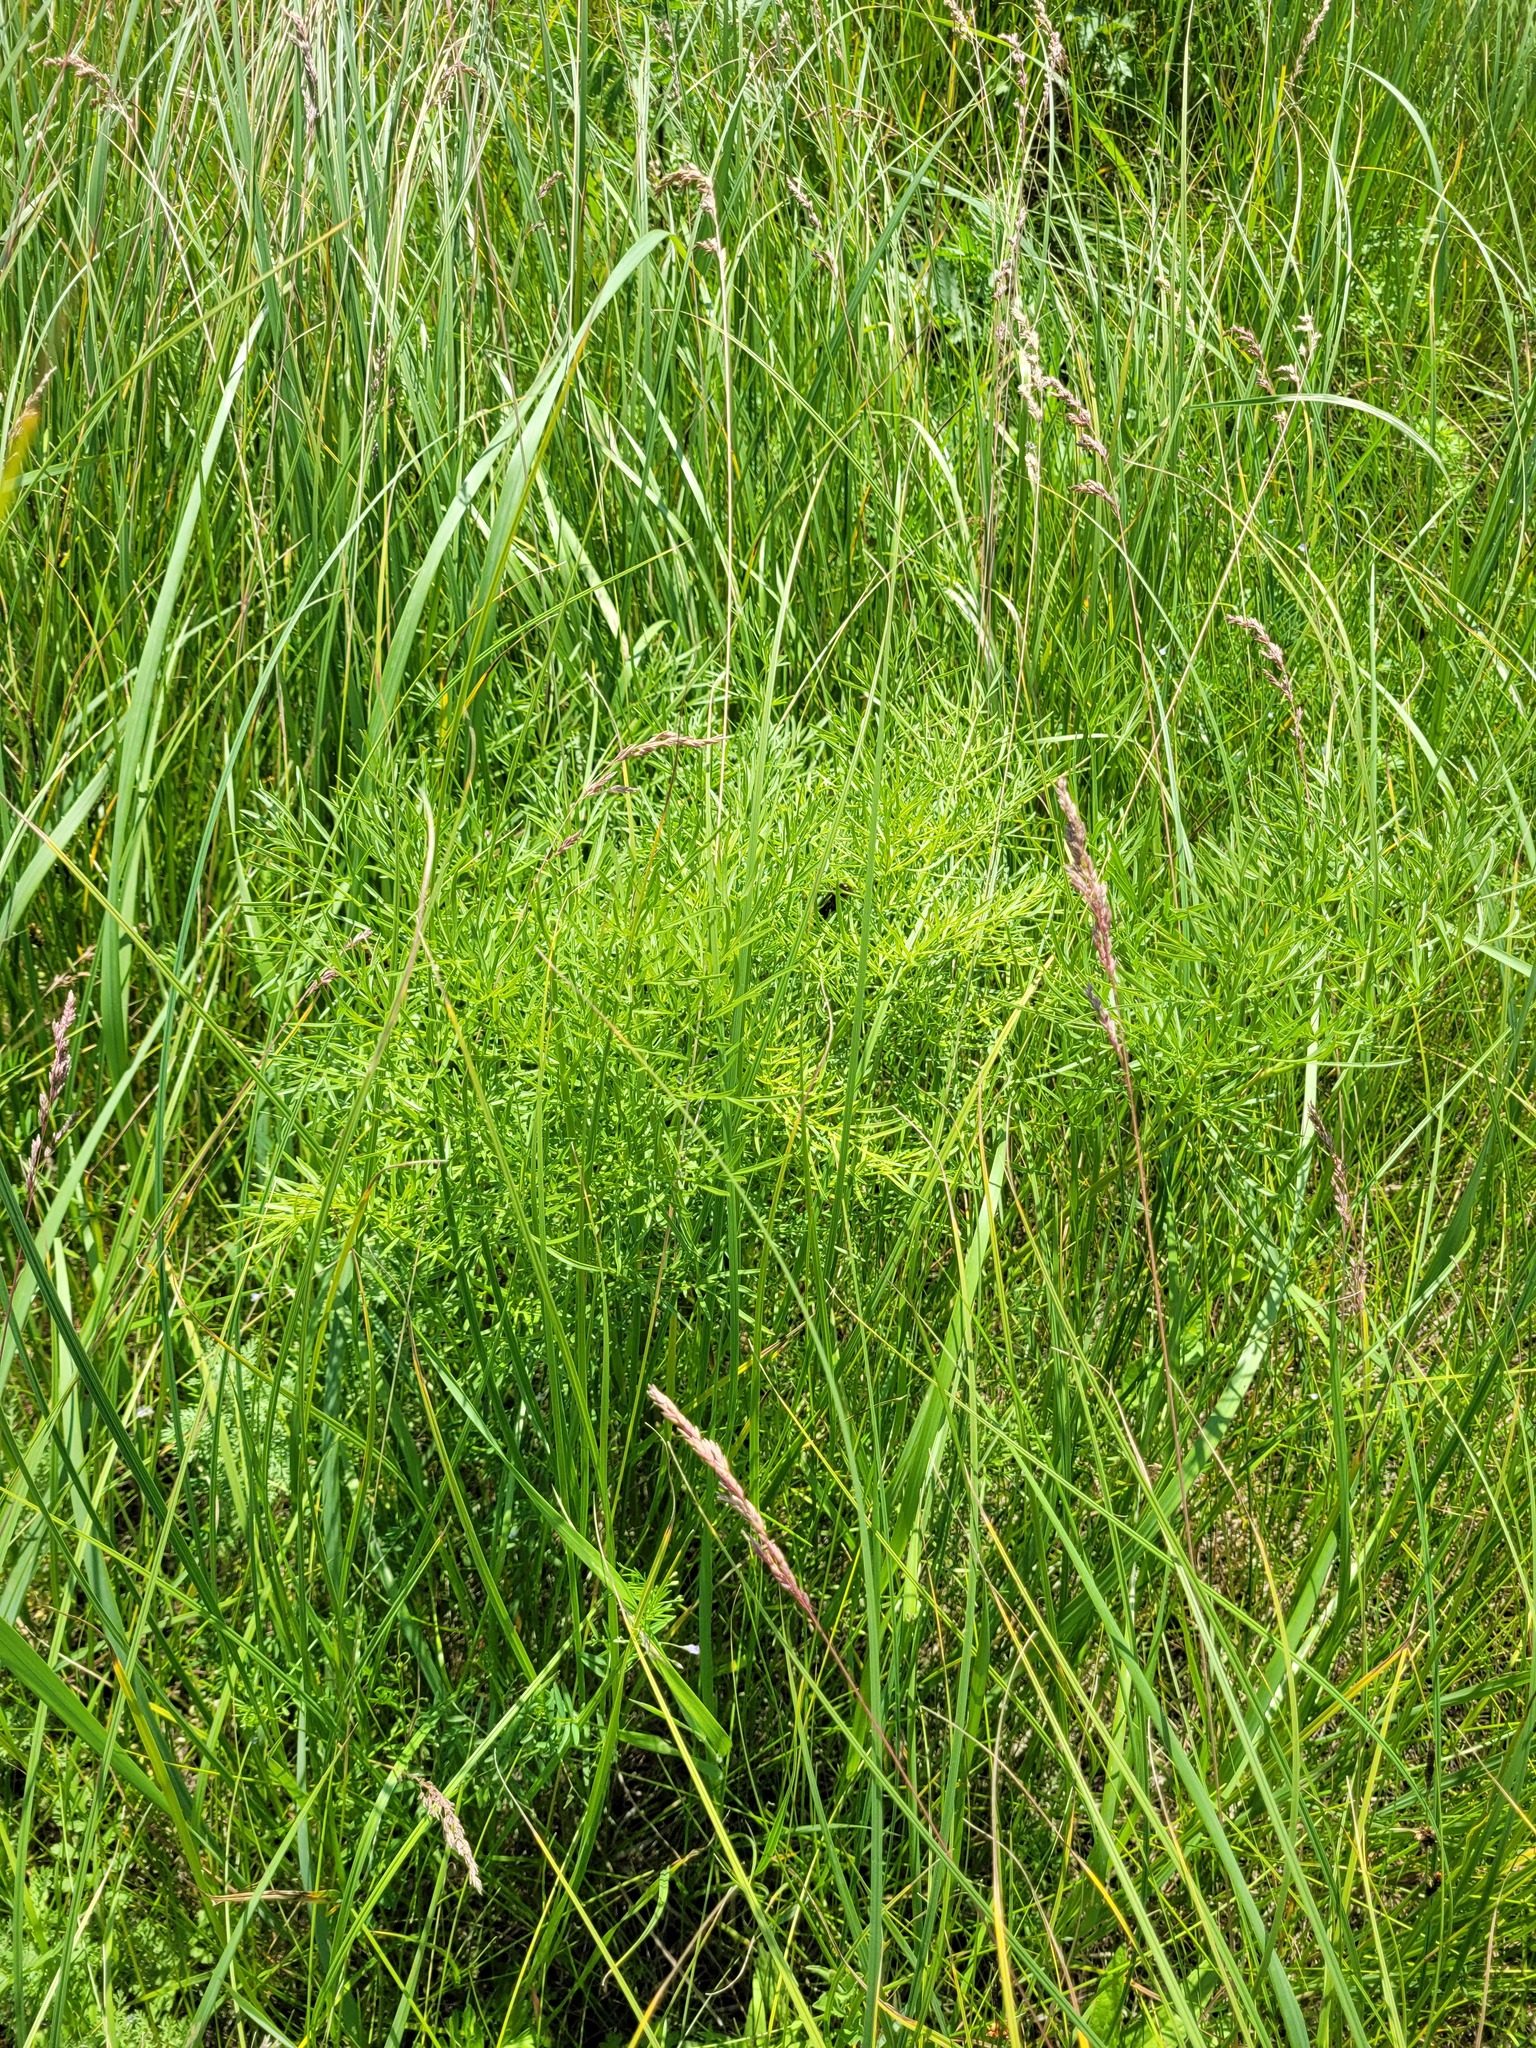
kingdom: Plantae
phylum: Tracheophyta
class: Magnoliopsida
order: Apiales
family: Apiaceae
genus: Silaum
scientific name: Silaum silaus
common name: Pepper-saxifrage
